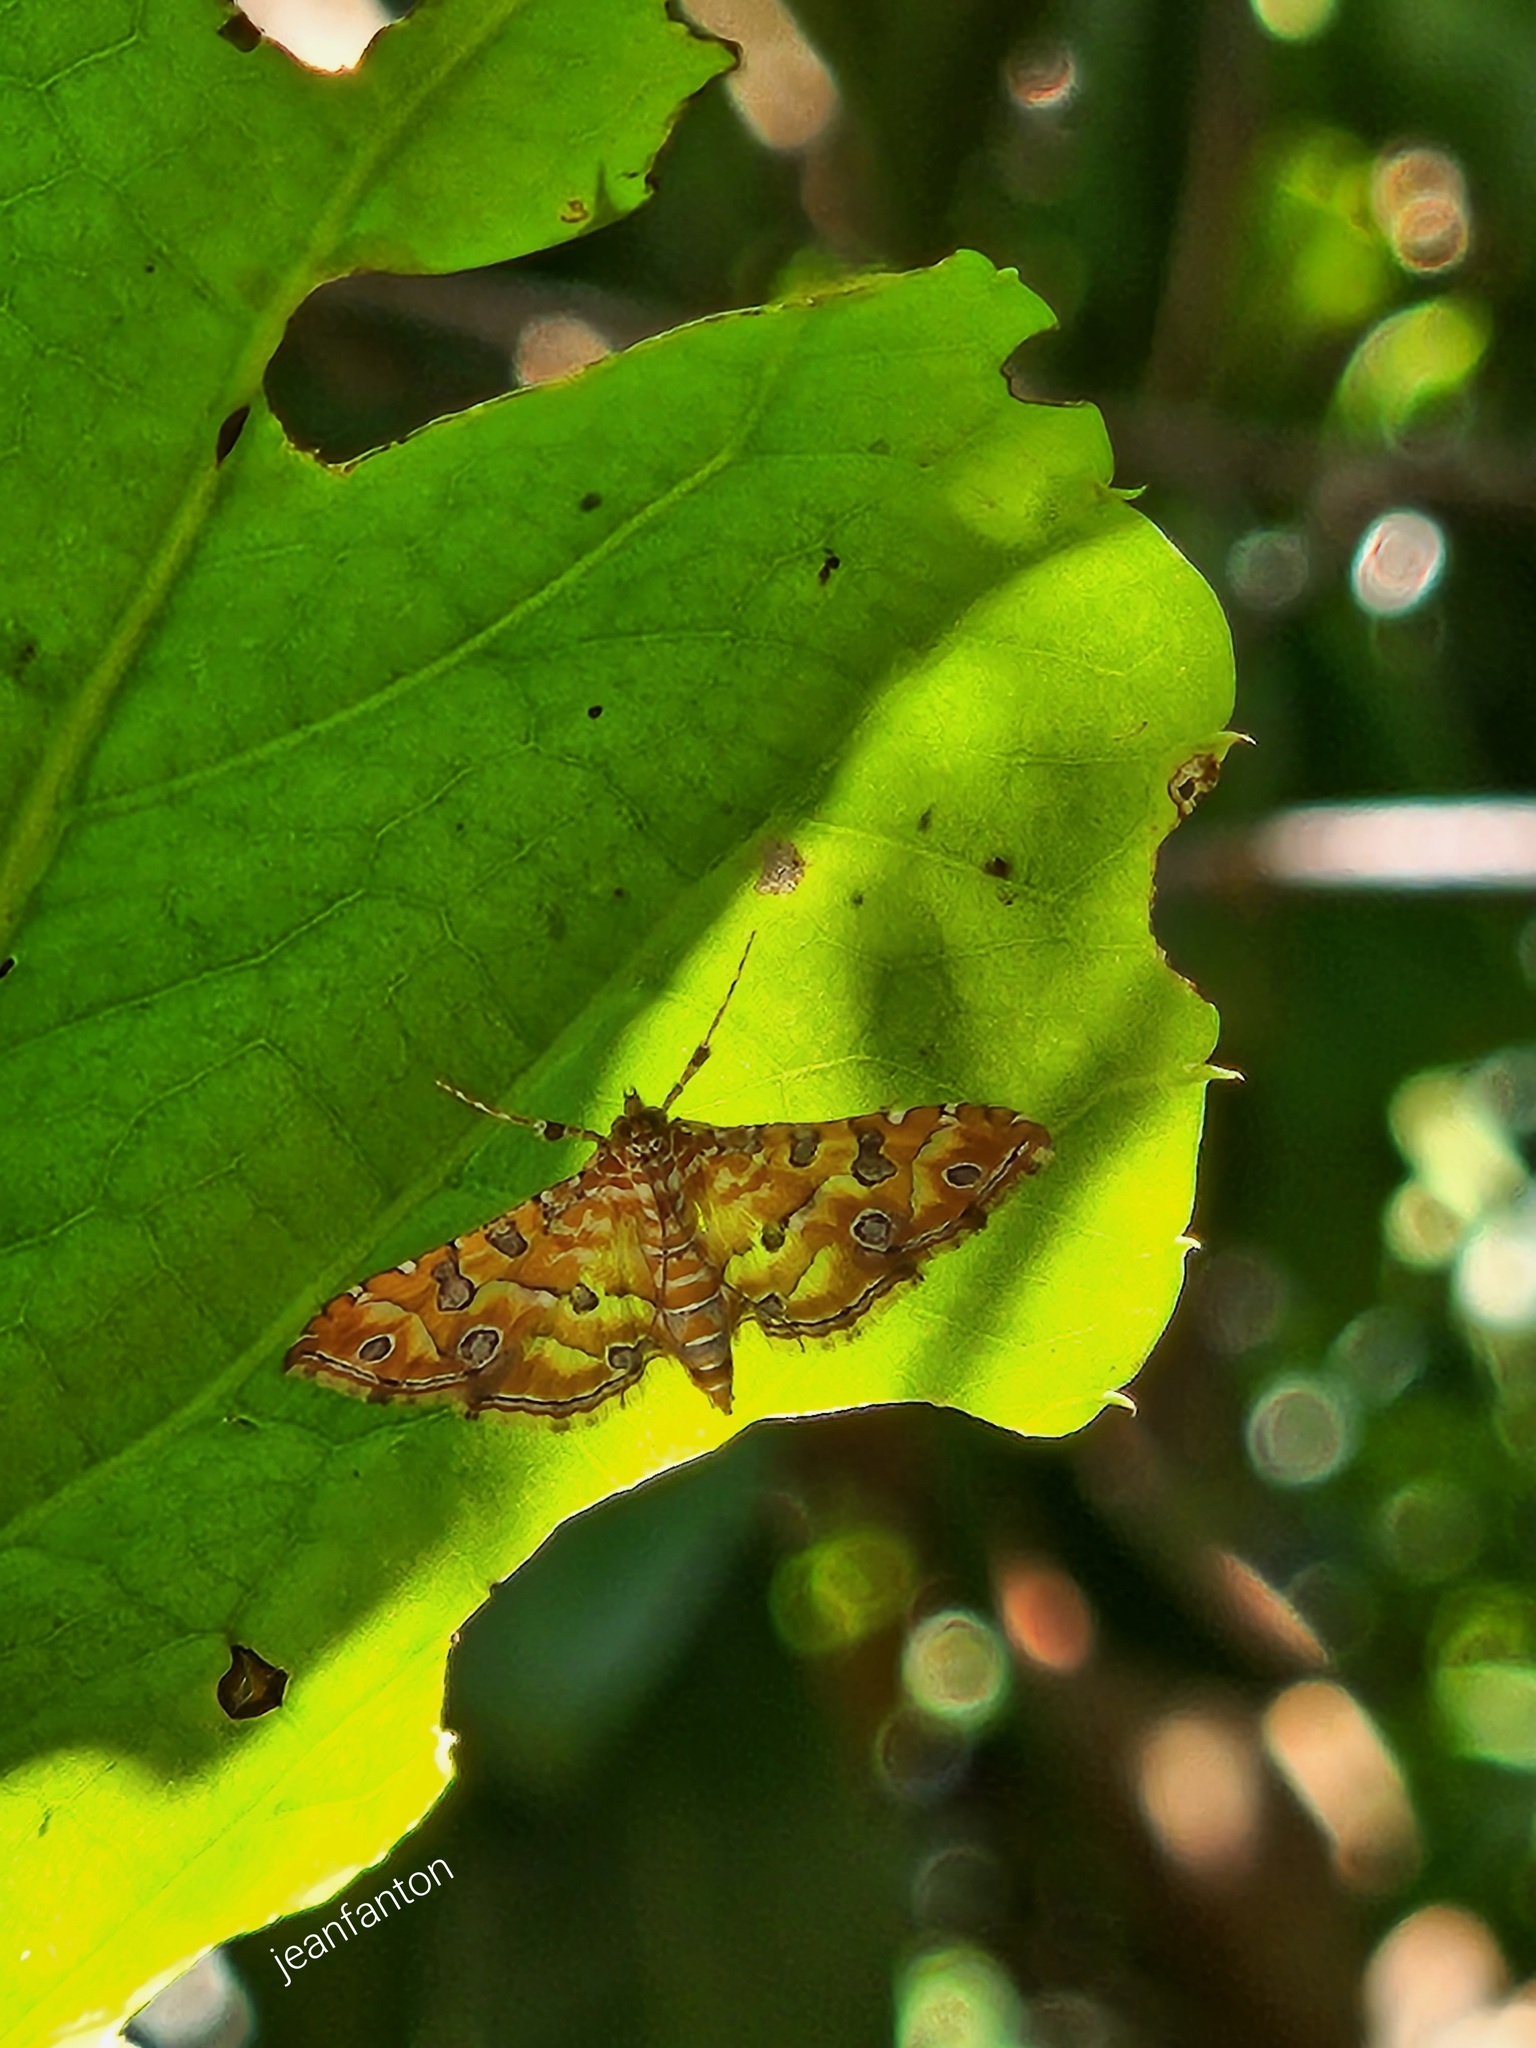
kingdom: Animalia
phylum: Arthropoda
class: Insecta
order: Lepidoptera
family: Crambidae
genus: Ommatospila
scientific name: Ommatospila narcaeusalis
